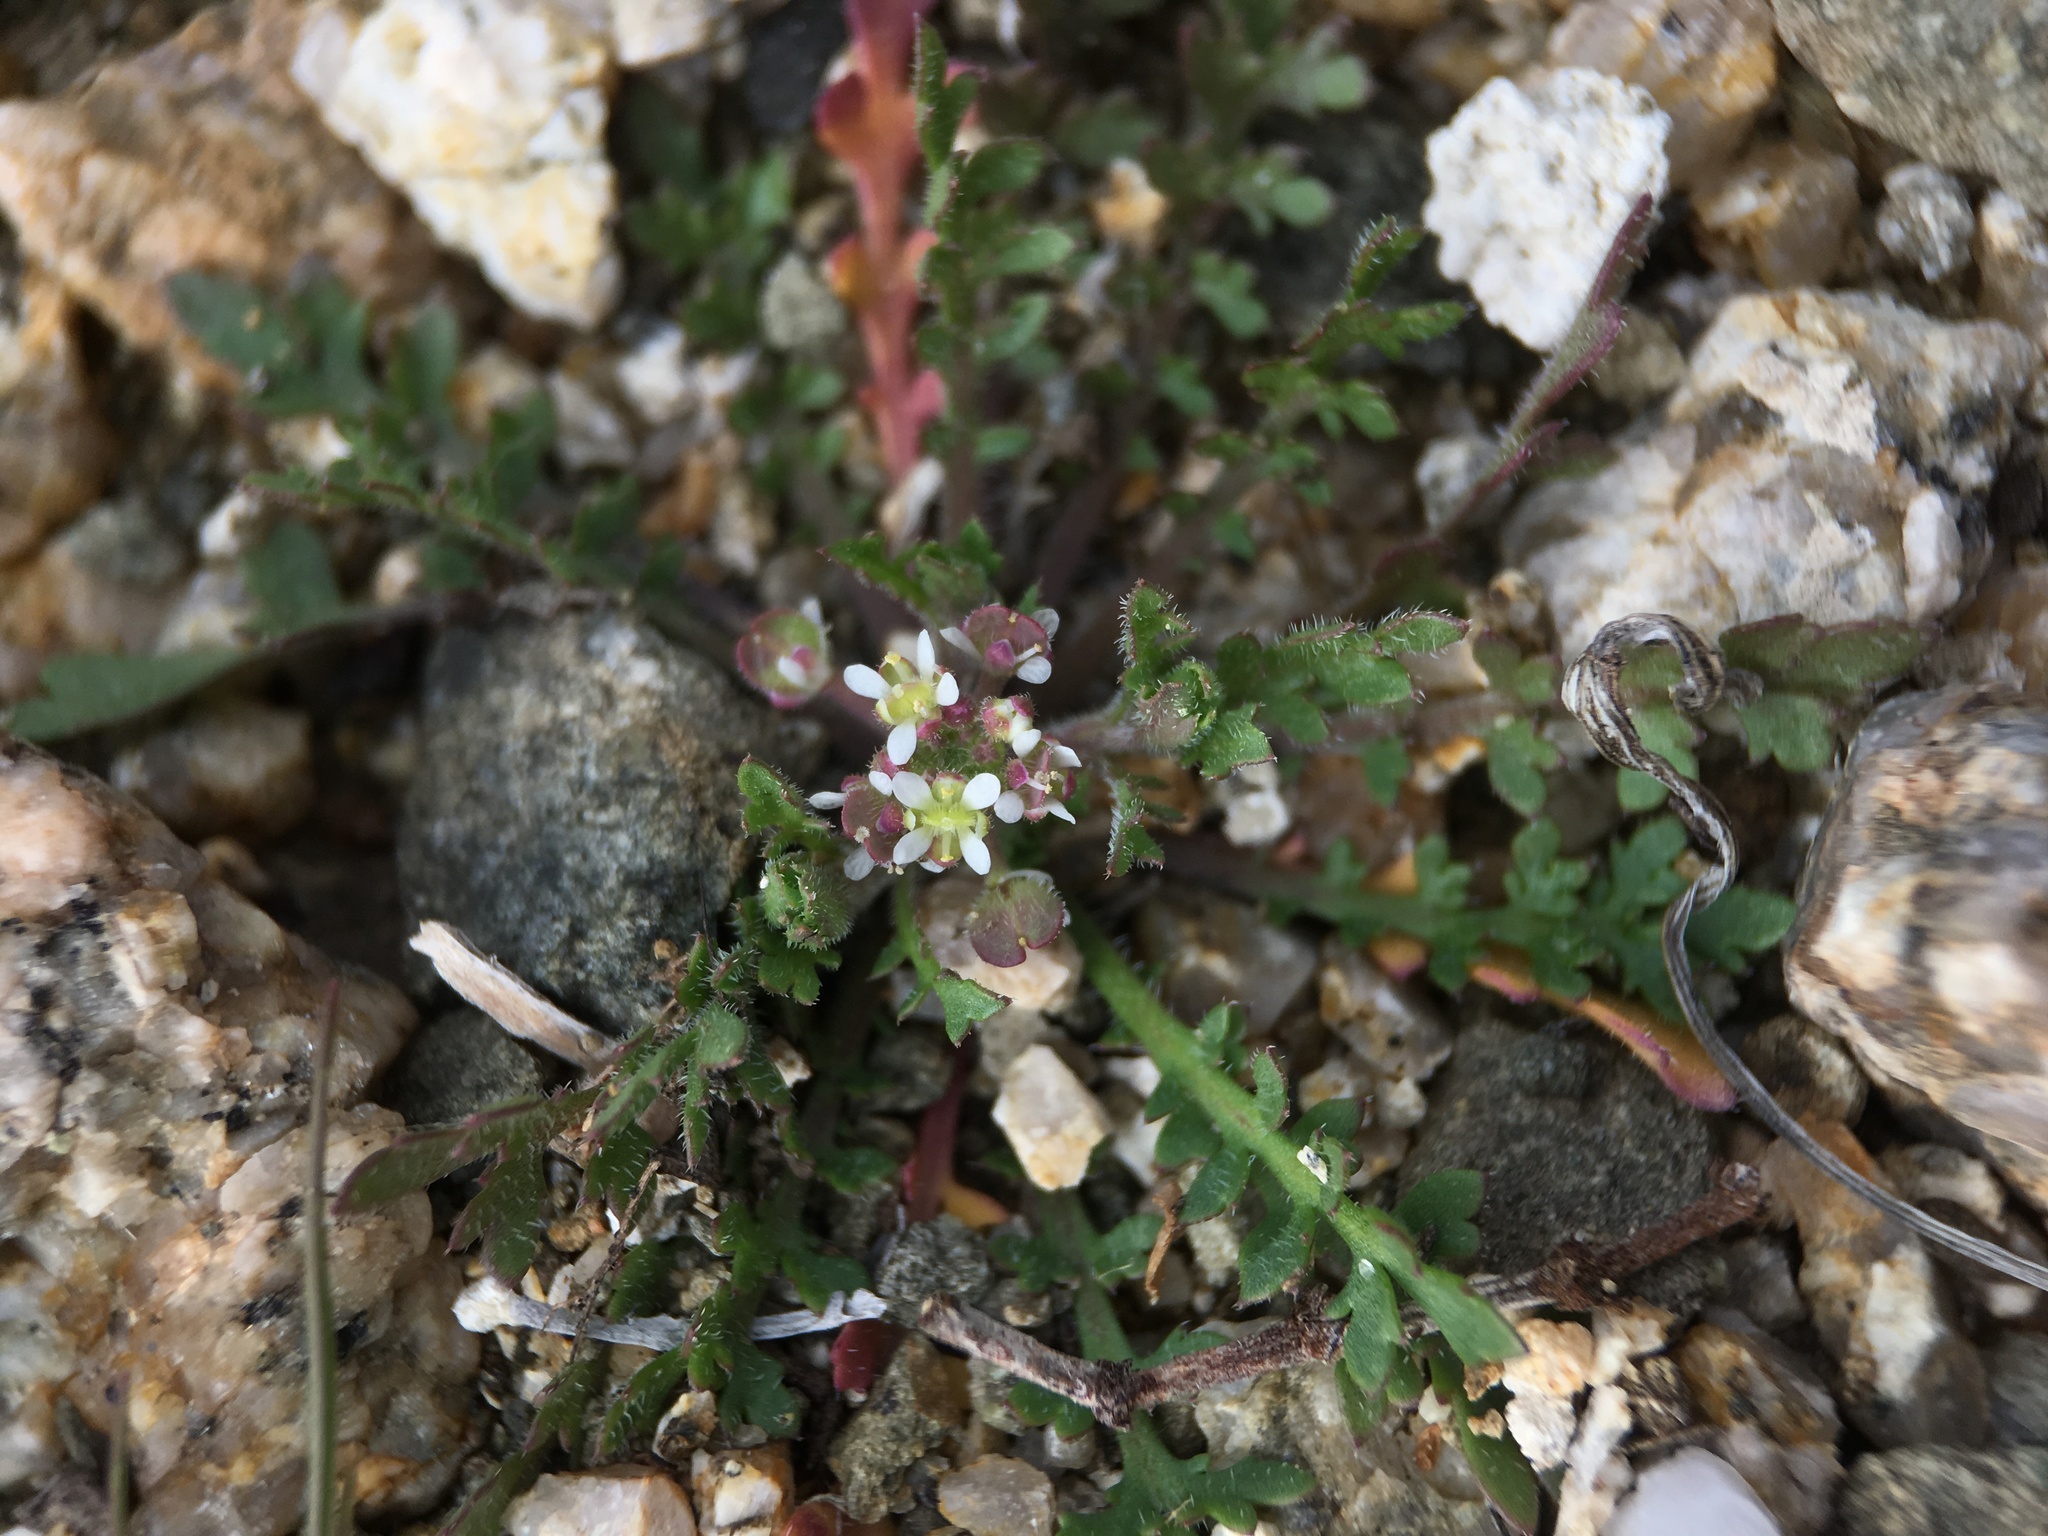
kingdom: Plantae
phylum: Tracheophyta
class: Magnoliopsida
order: Brassicales
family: Brassicaceae
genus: Lepidium
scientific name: Lepidium lasiocarpum
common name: Hairy-pod pepperwort
